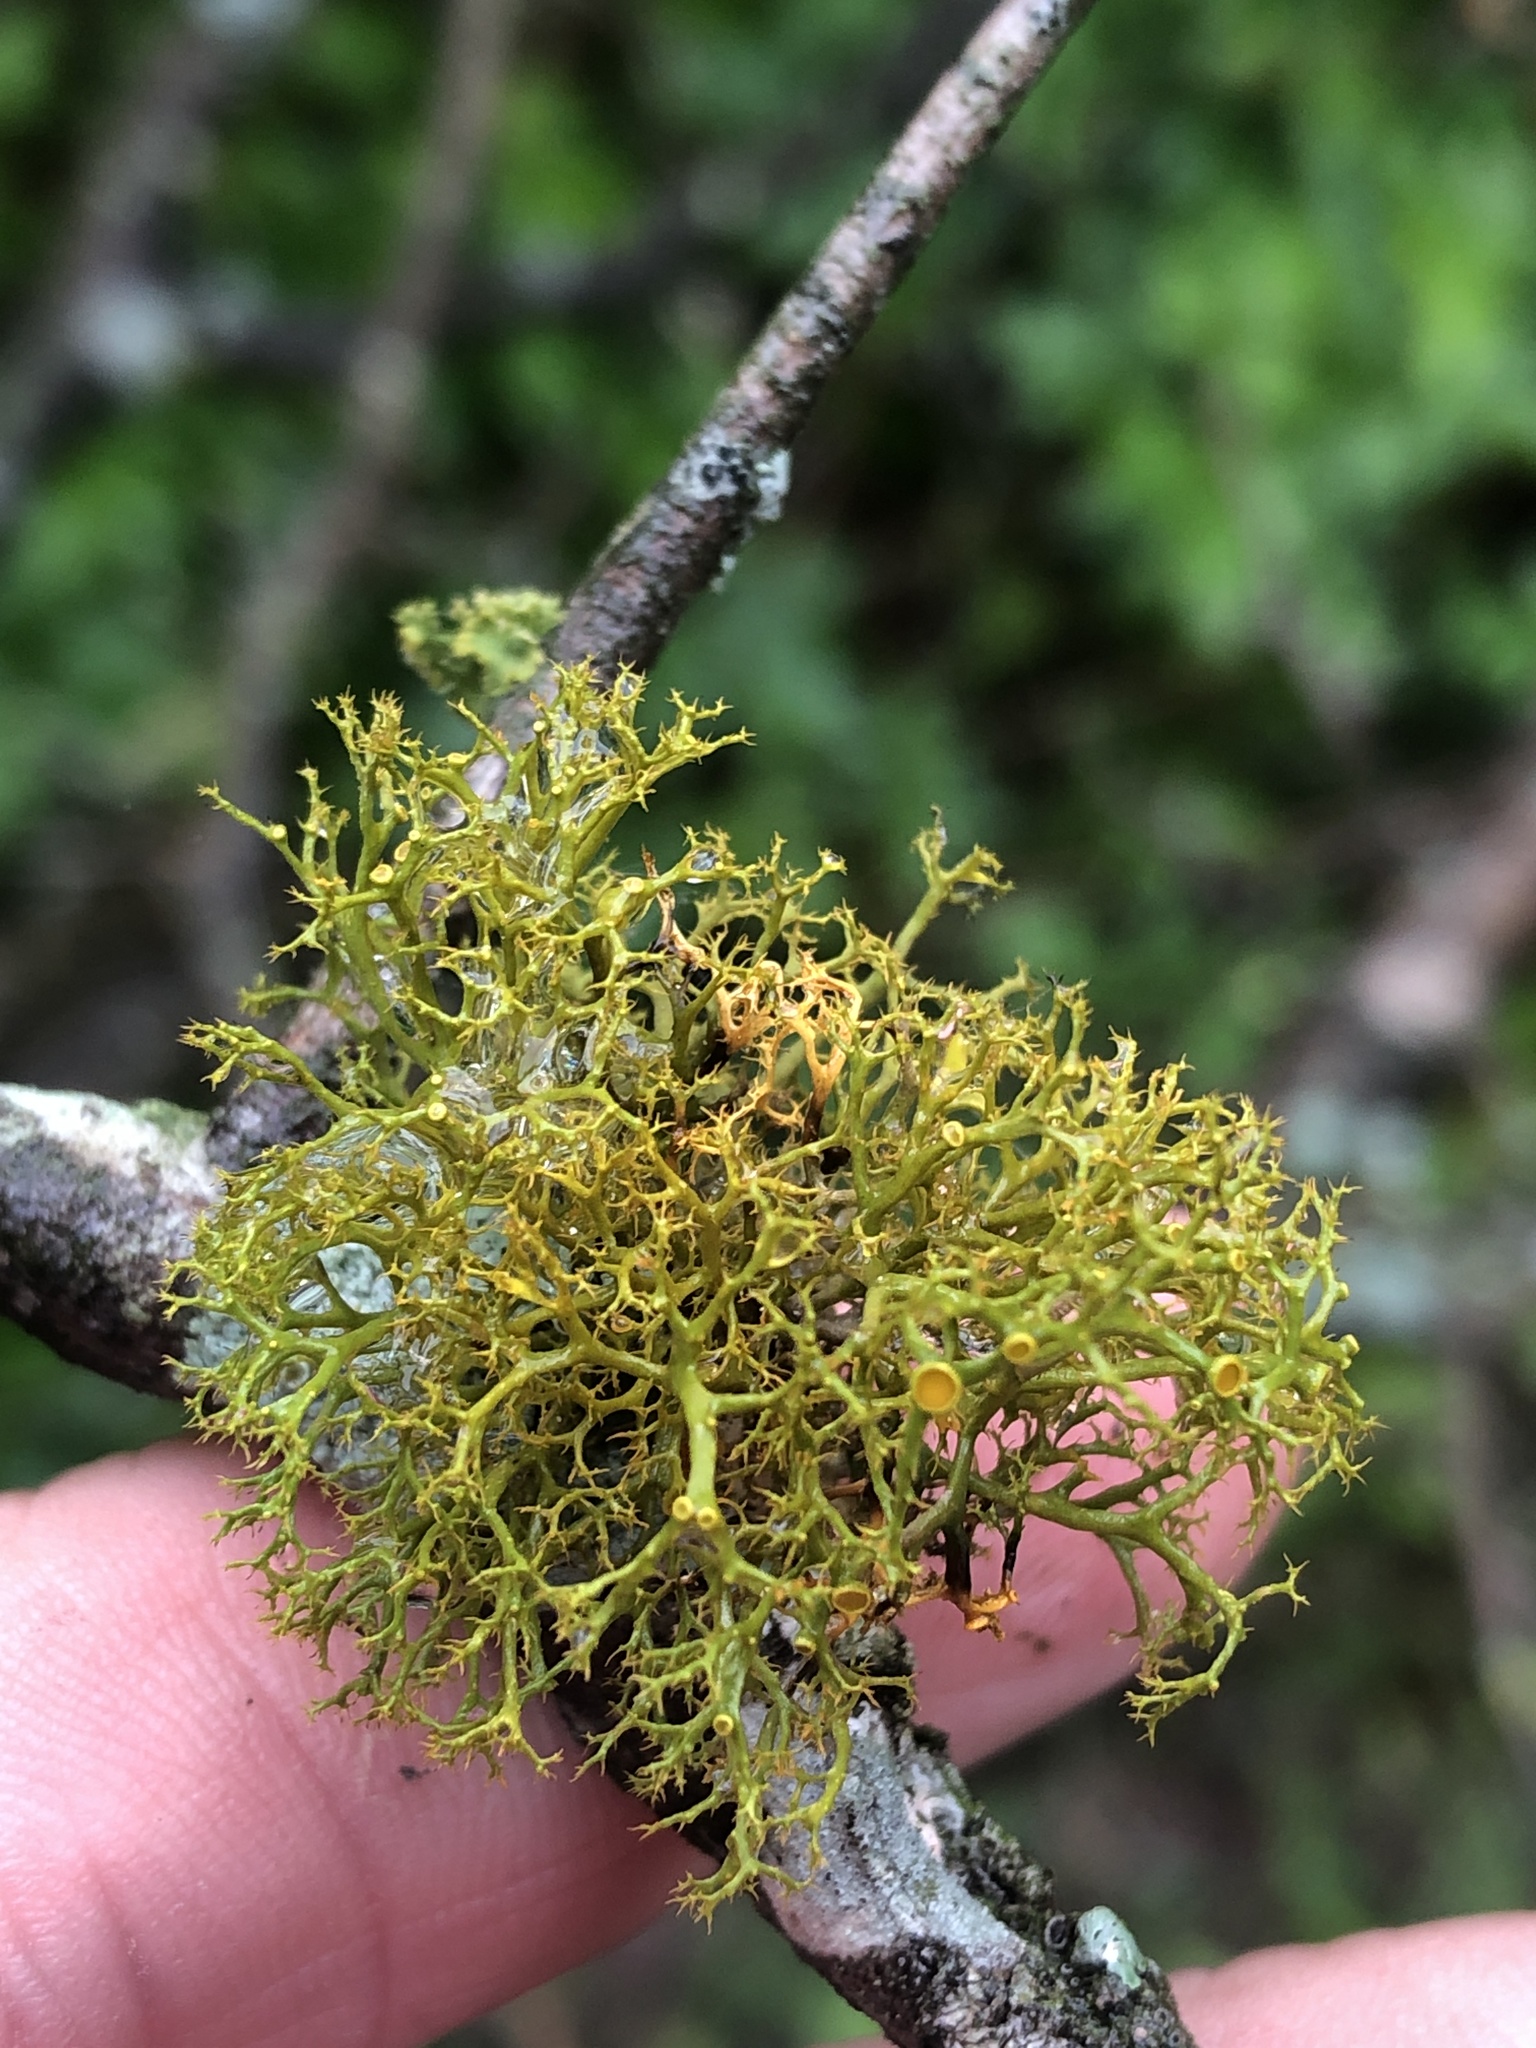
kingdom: Fungi
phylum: Ascomycota
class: Lecanoromycetes
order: Teloschistales
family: Teloschistaceae
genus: Teloschistes
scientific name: Teloschistes exilis
